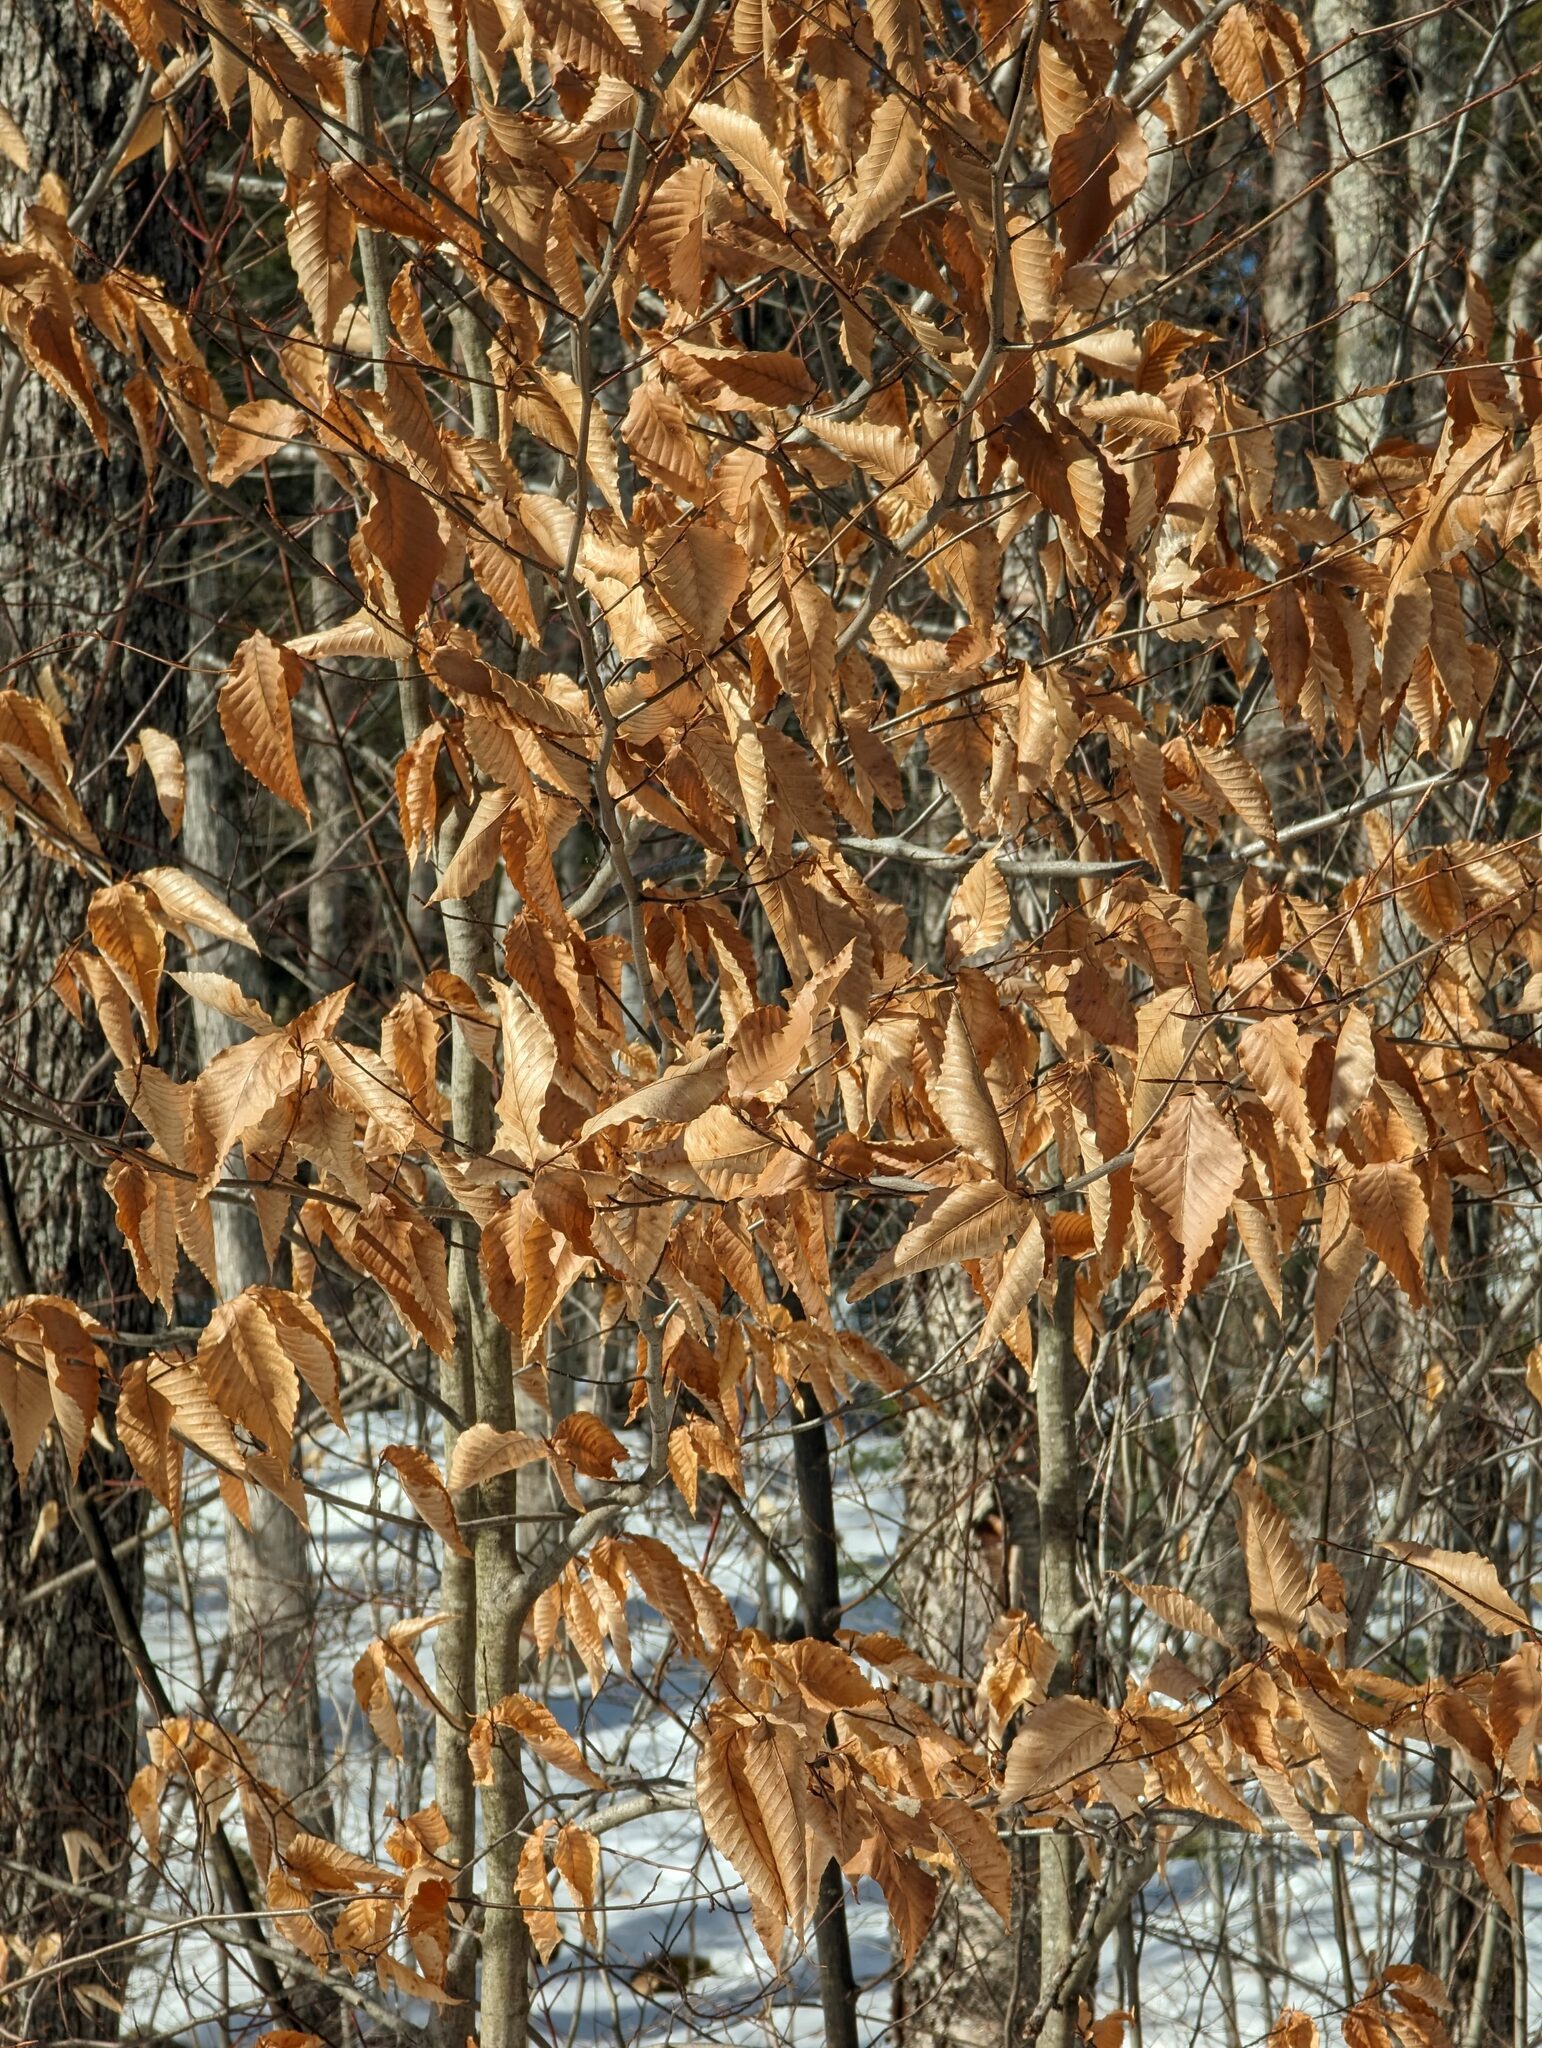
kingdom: Plantae
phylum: Tracheophyta
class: Magnoliopsida
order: Fagales
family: Fagaceae
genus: Fagus
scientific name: Fagus grandifolia
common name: American beech
